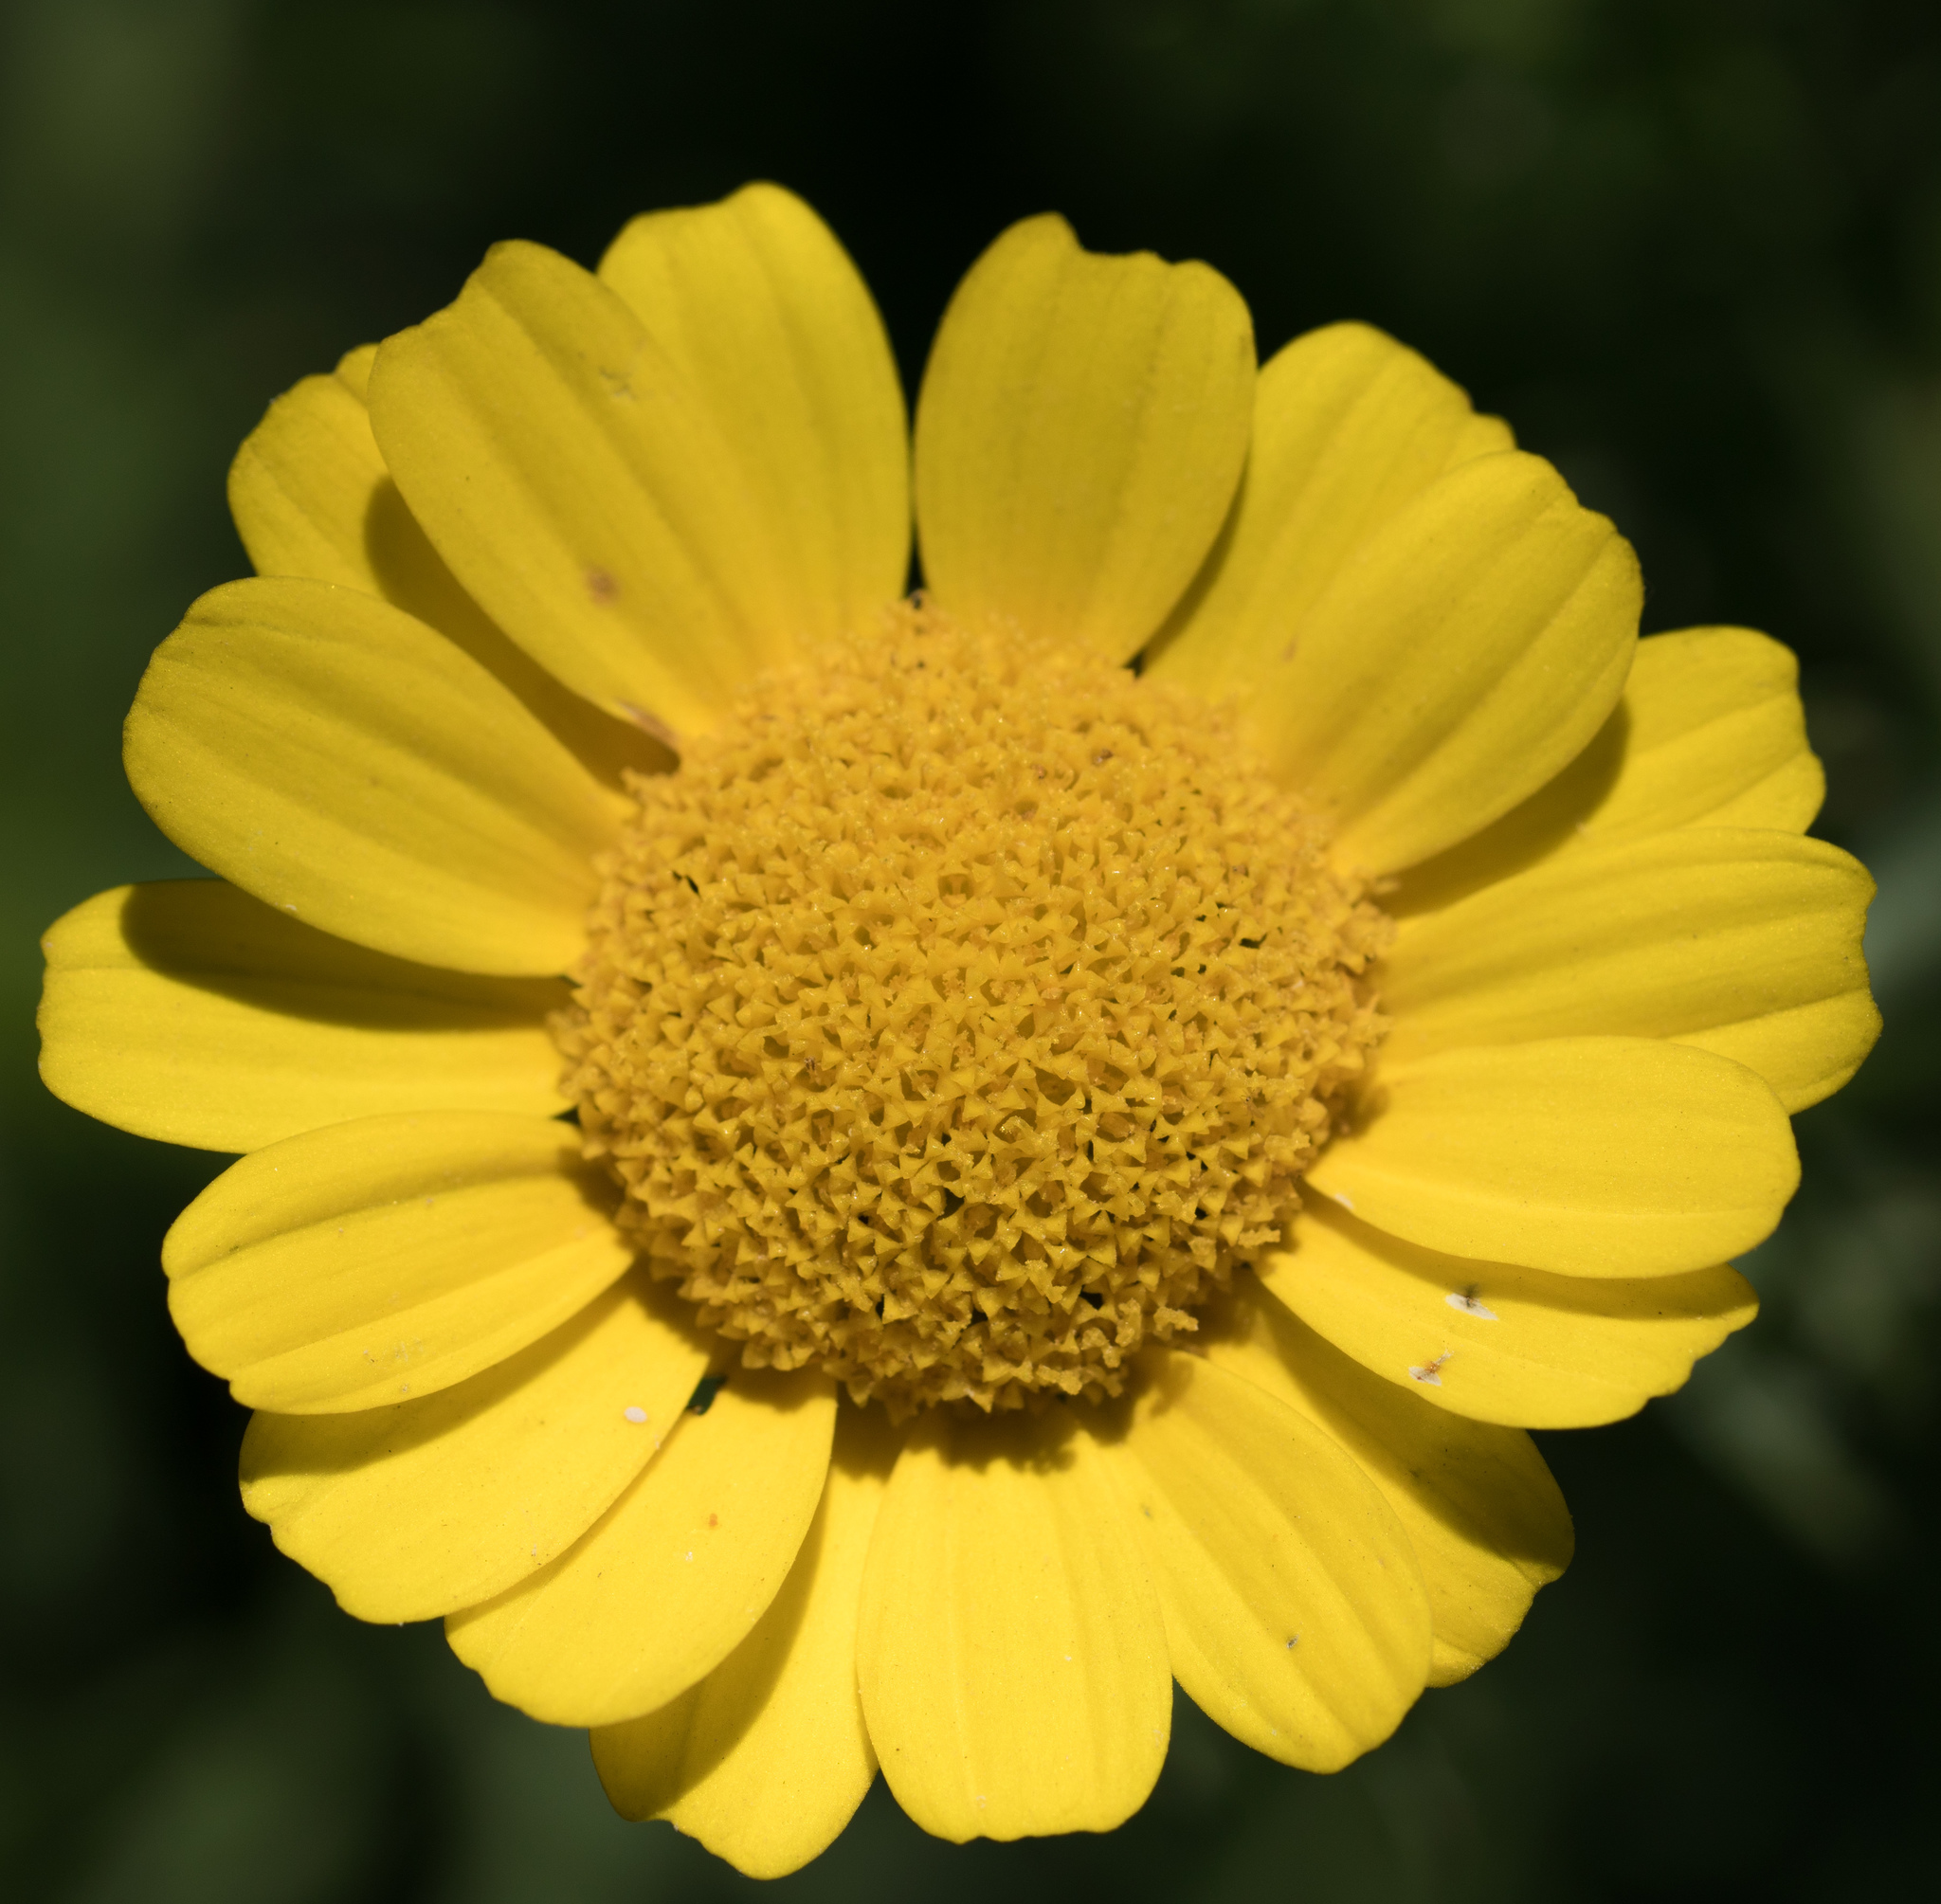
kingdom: Plantae
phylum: Tracheophyta
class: Magnoliopsida
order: Asterales
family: Asteraceae
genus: Glebionis
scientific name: Glebionis coronaria
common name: Crowndaisy
